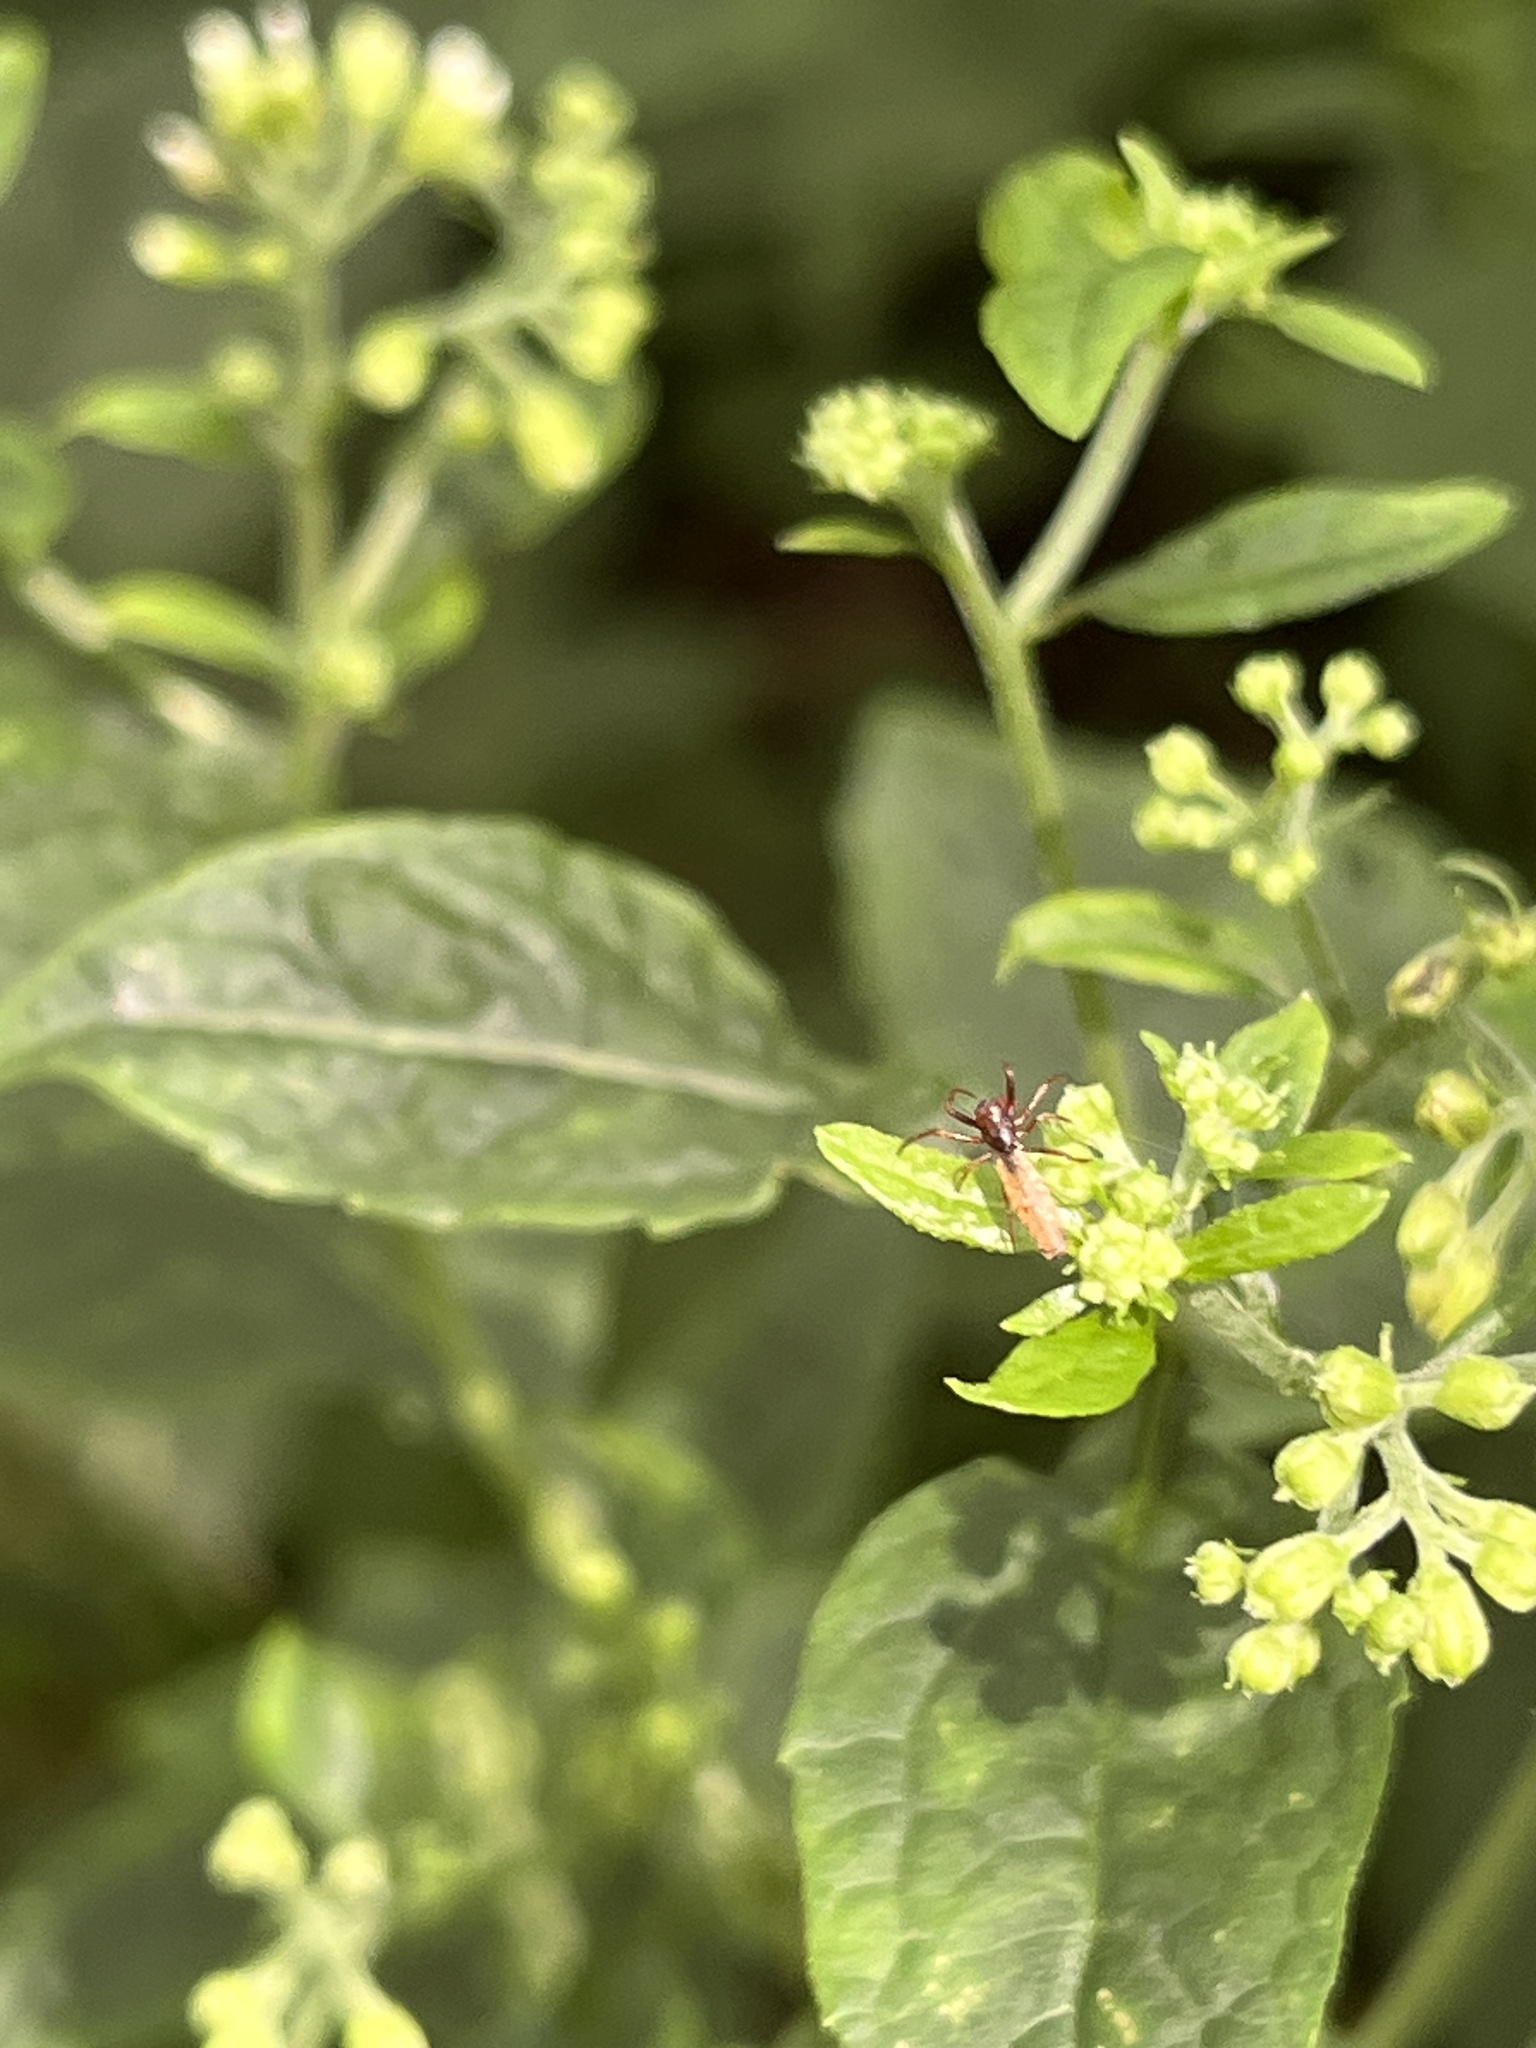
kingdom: Animalia
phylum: Arthropoda
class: Arachnida
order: Araneae
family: Araneidae
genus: Micrathena
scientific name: Micrathena gracilis
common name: Orb weavers
